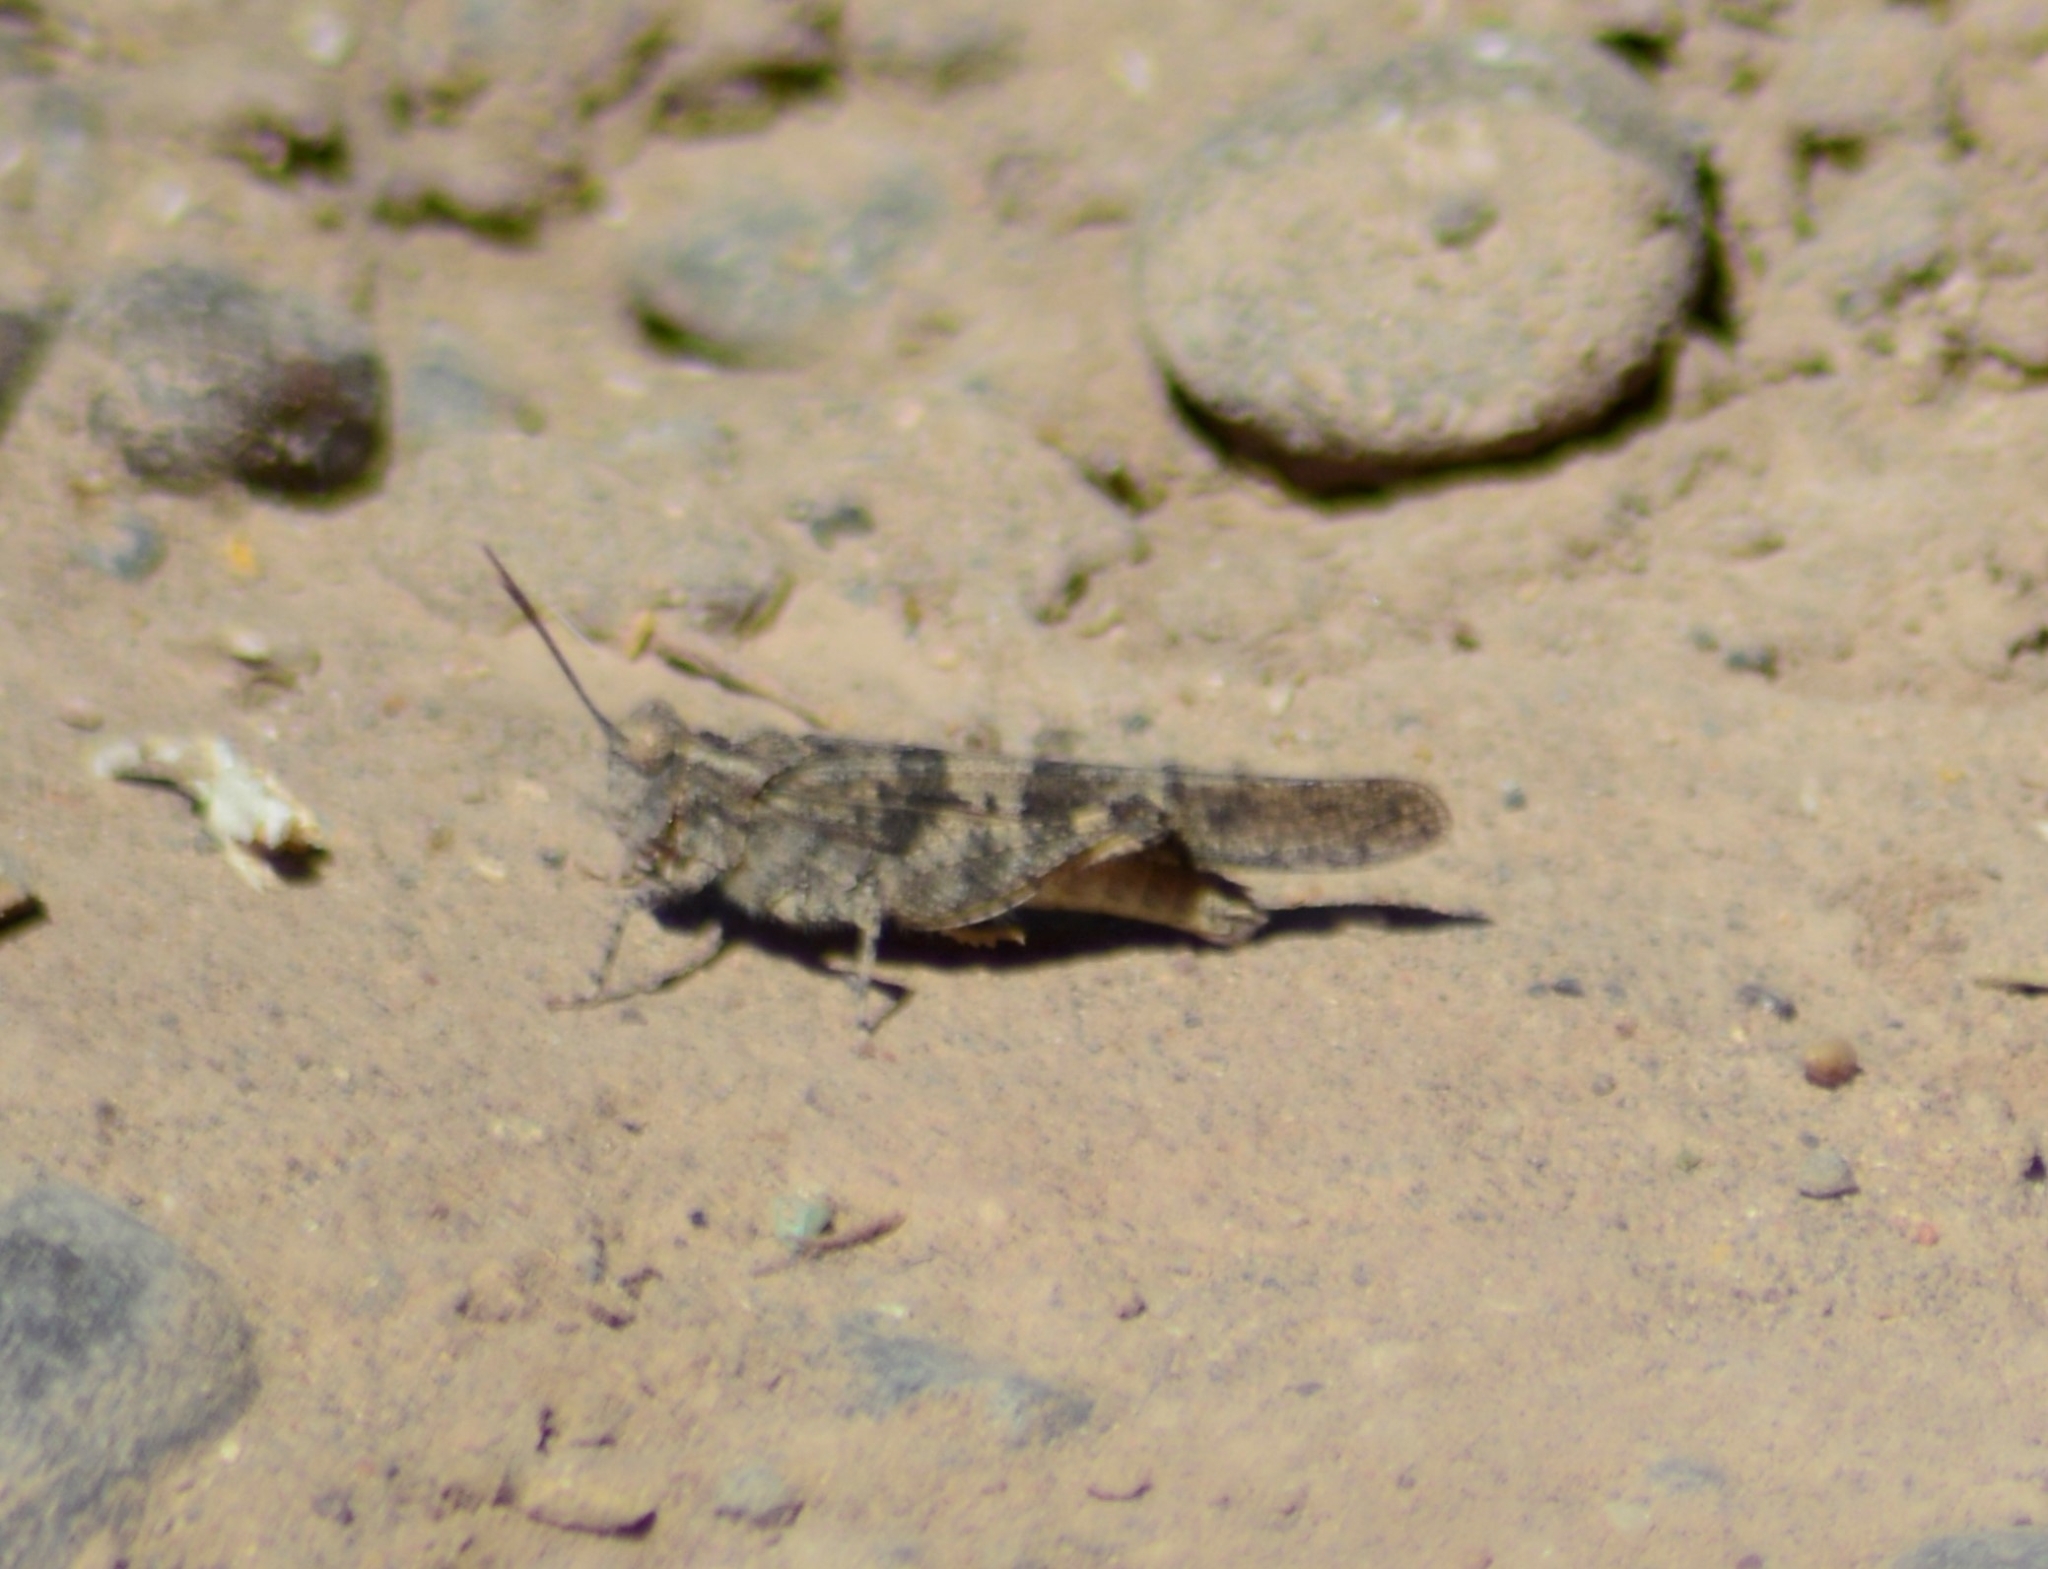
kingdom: Animalia
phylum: Arthropoda
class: Insecta
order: Orthoptera
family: Acrididae
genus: Trimerotropis
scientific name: Trimerotropis pallidipennis
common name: Pallid-winged grasshopper
